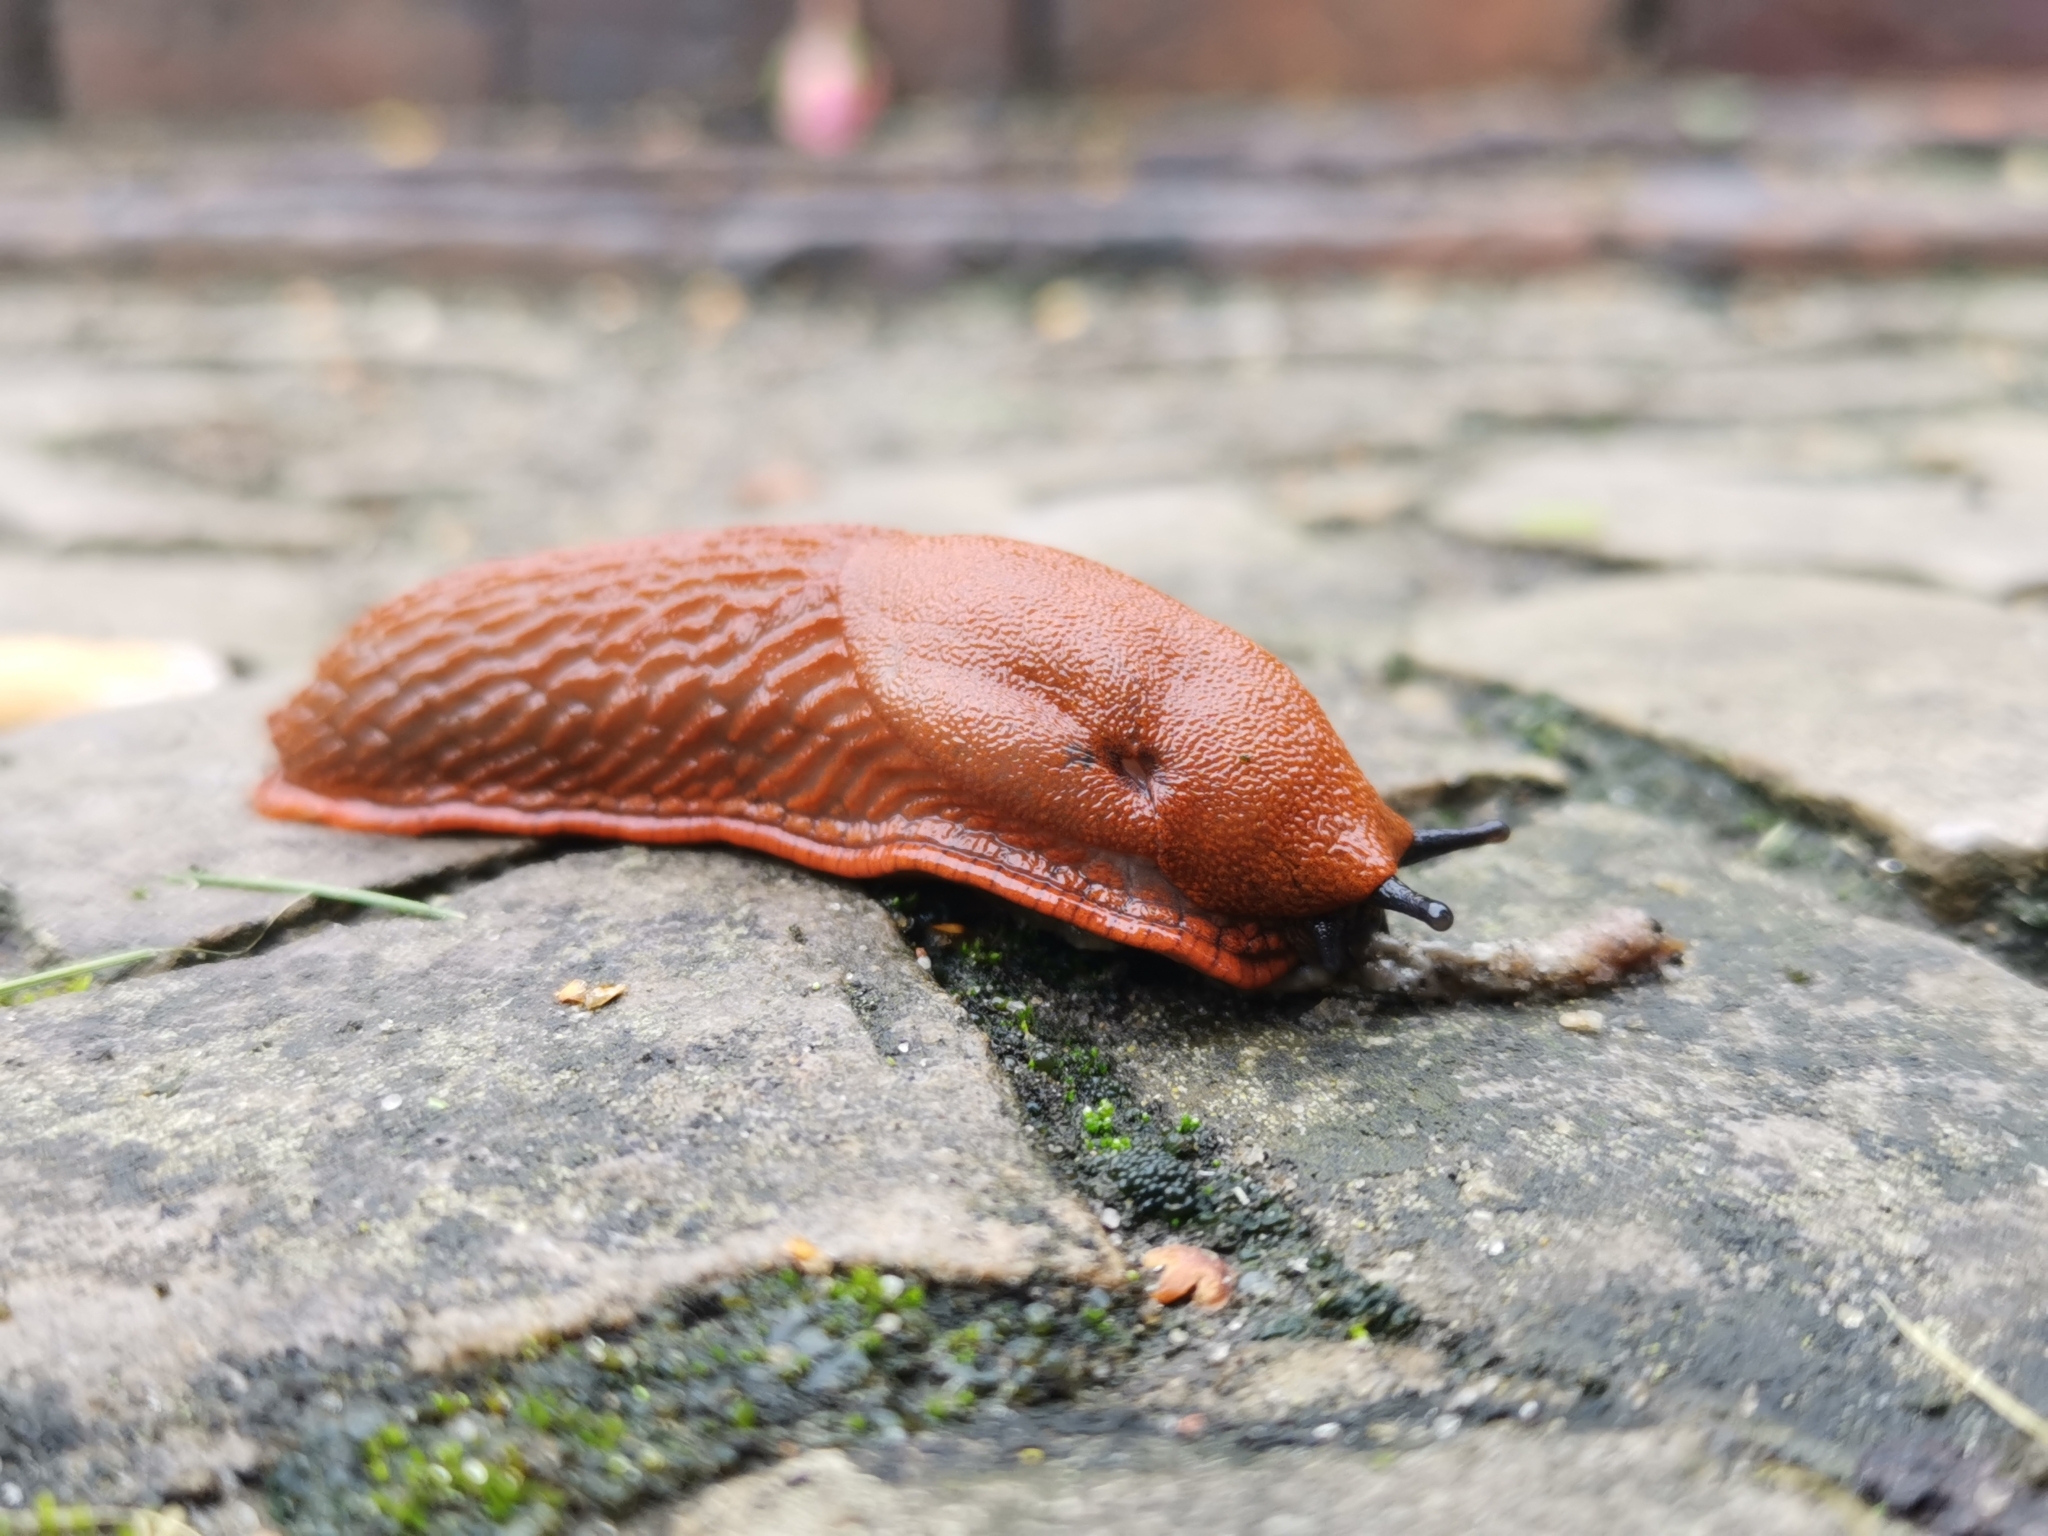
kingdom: Animalia
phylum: Mollusca
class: Gastropoda
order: Stylommatophora
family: Arionidae
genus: Arion
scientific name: Arion rufus
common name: Chocolate arion
